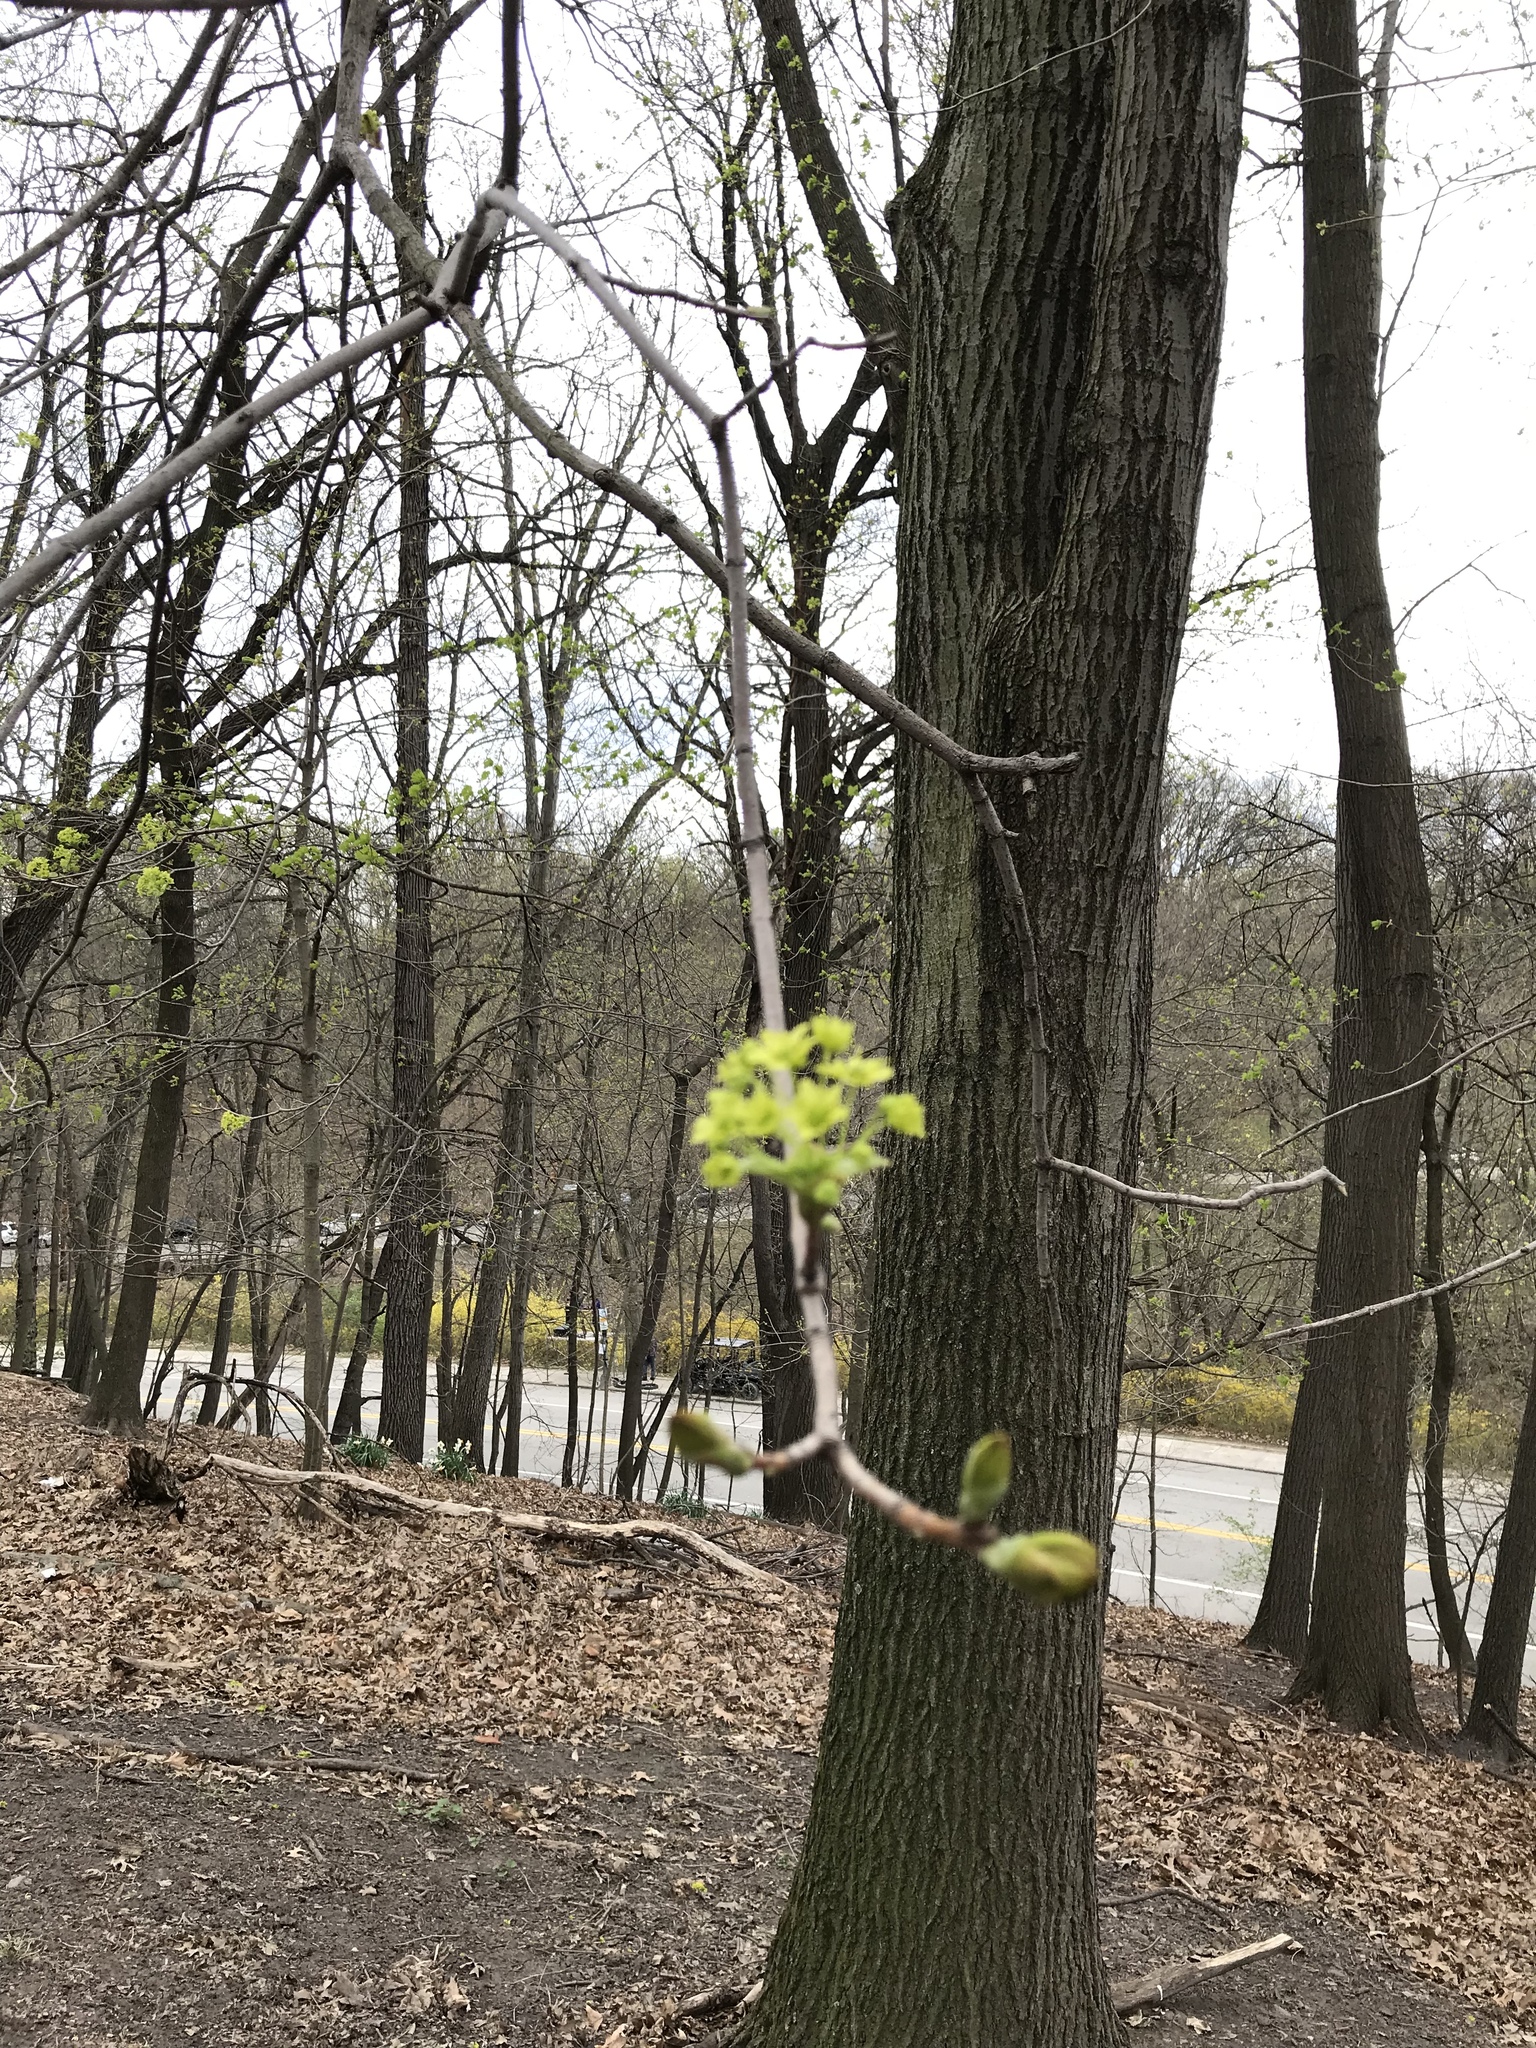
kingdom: Plantae
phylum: Tracheophyta
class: Magnoliopsida
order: Sapindales
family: Sapindaceae
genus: Acer
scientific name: Acer platanoides
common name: Norway maple
